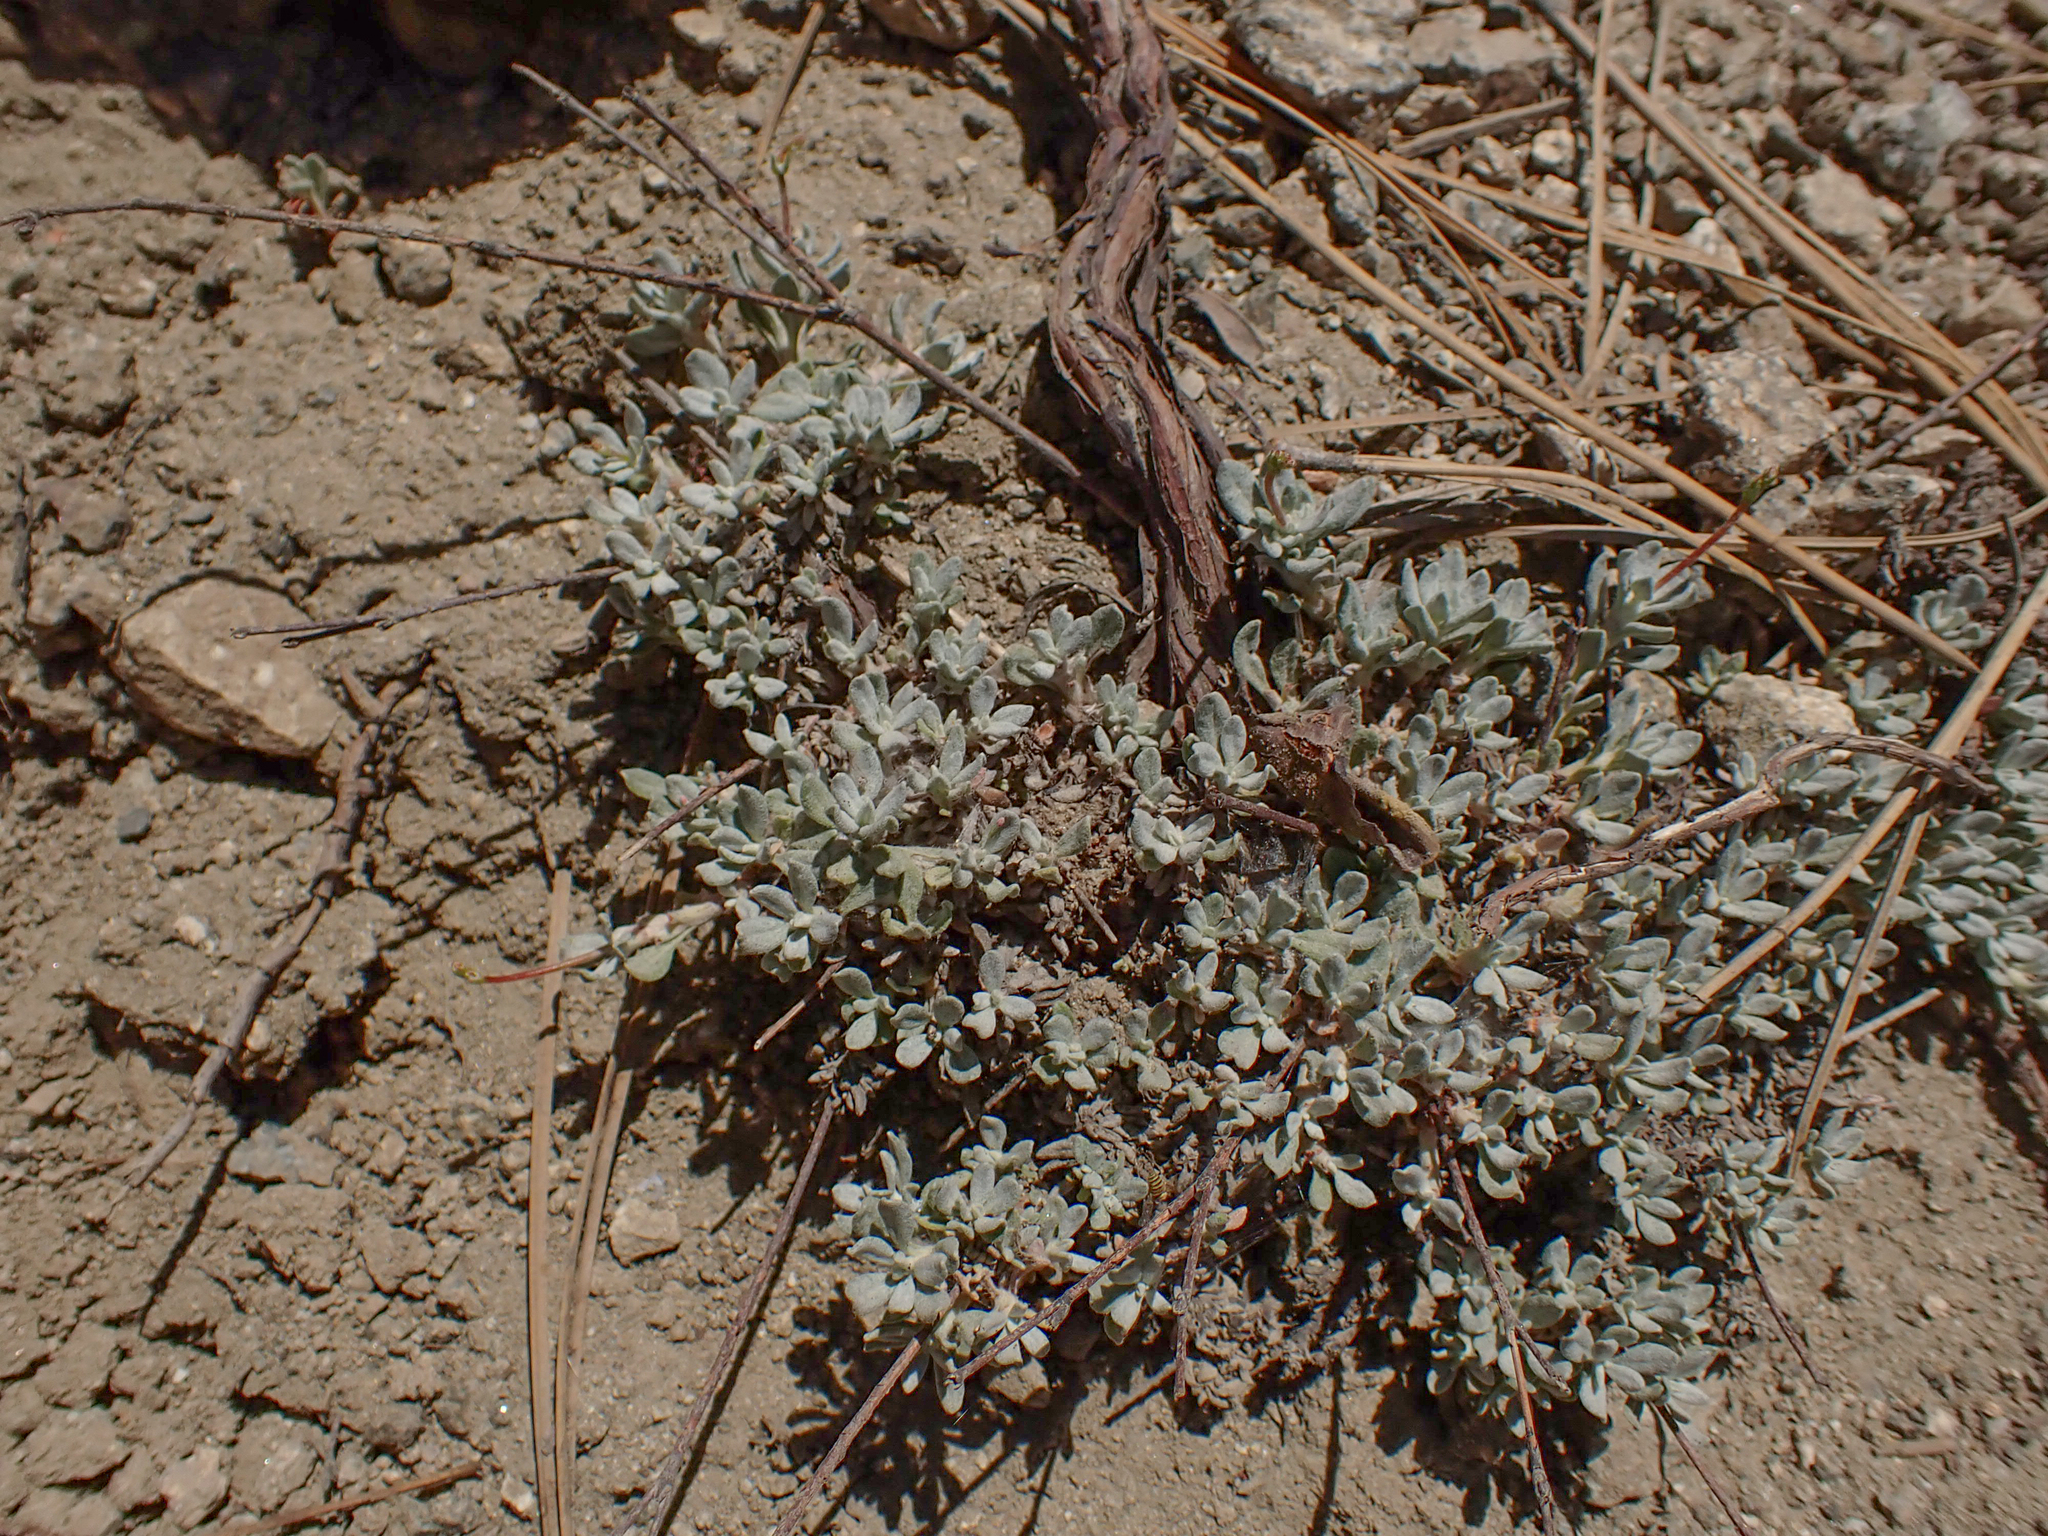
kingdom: Plantae
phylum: Tracheophyta
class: Magnoliopsida
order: Caryophyllales
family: Polygonaceae
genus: Eriogonum
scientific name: Eriogonum wrightii
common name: Bastard-sage
